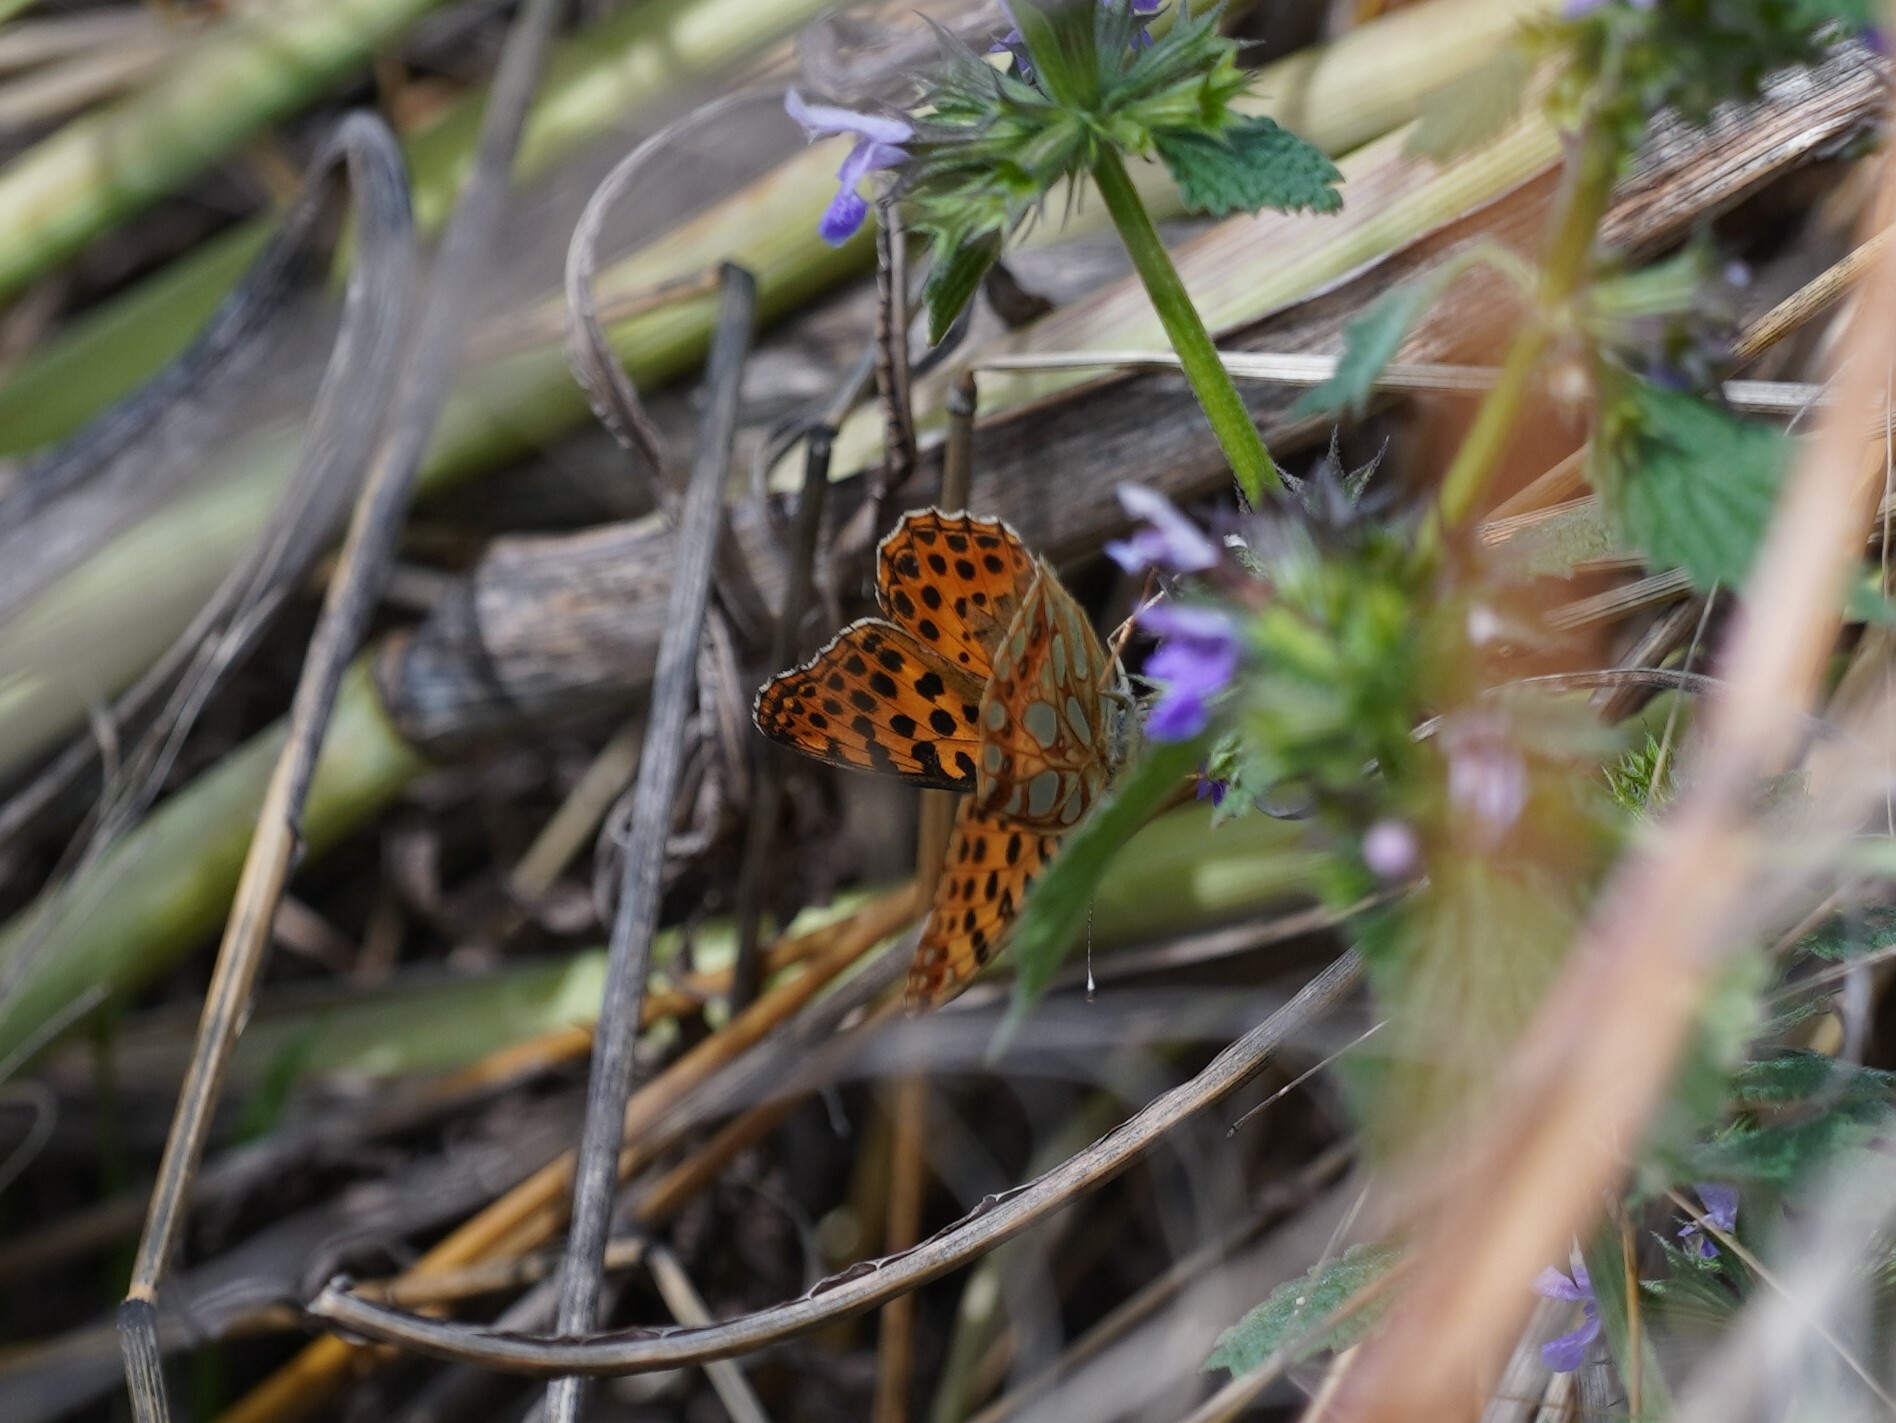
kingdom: Animalia
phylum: Arthropoda
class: Insecta
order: Lepidoptera
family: Nymphalidae
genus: Issoria
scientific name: Issoria lathonia
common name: Queen of spain fritillary
